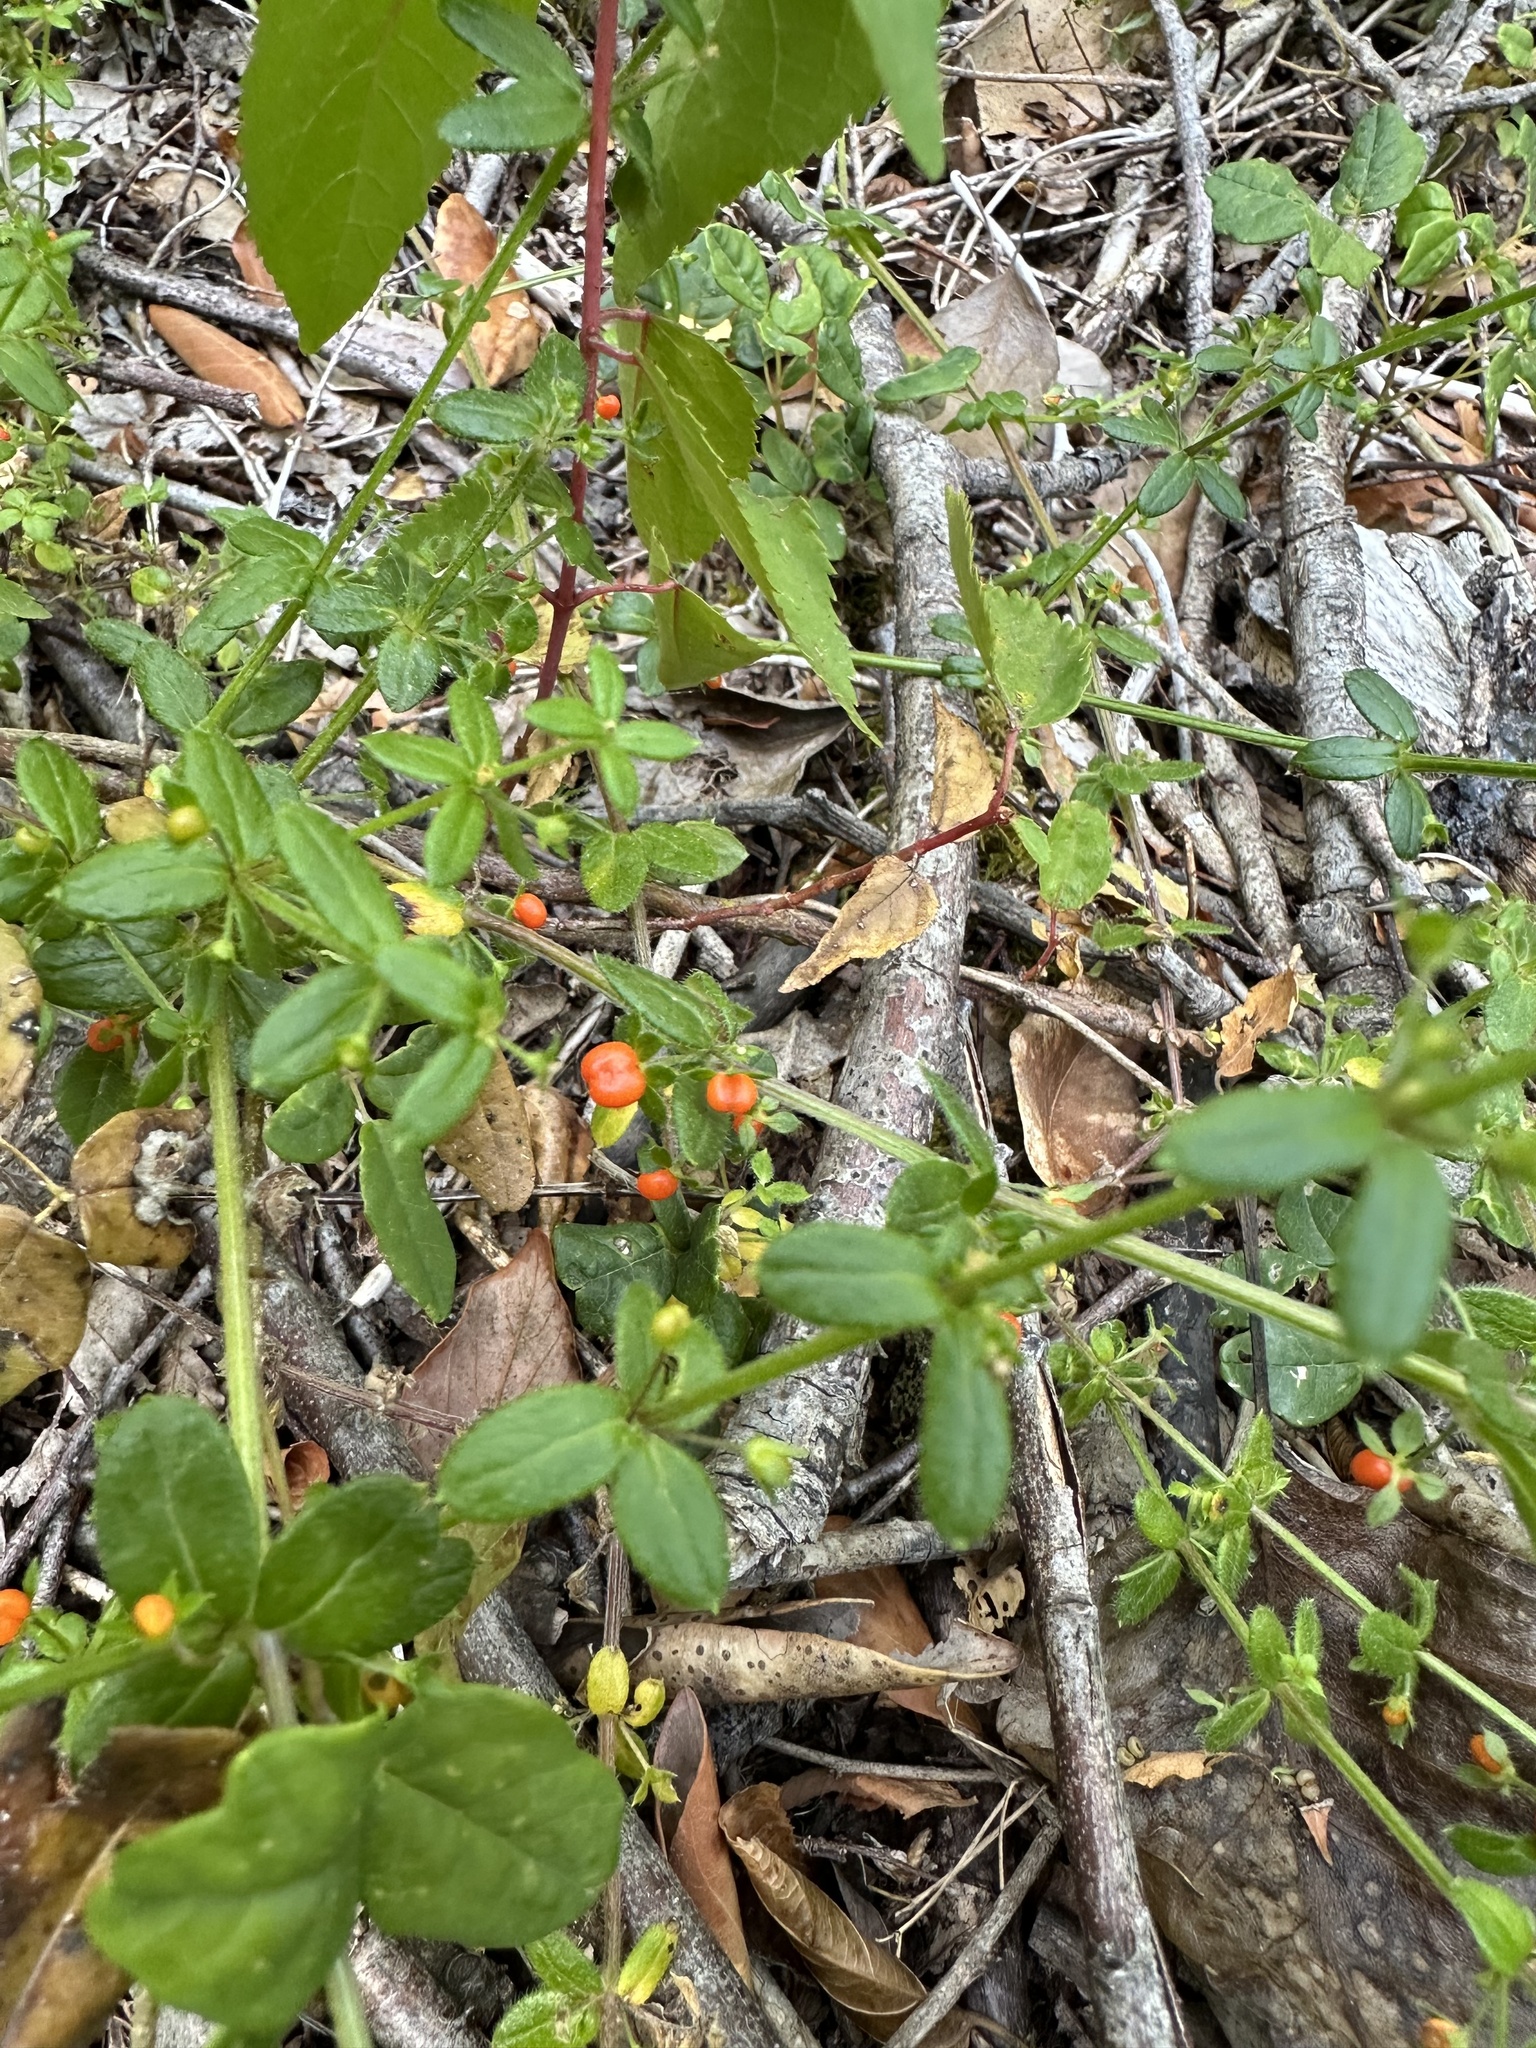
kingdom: Plantae
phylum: Tracheophyta
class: Magnoliopsida
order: Gentianales
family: Rubiaceae
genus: Galium
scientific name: Galium hypocarpium
